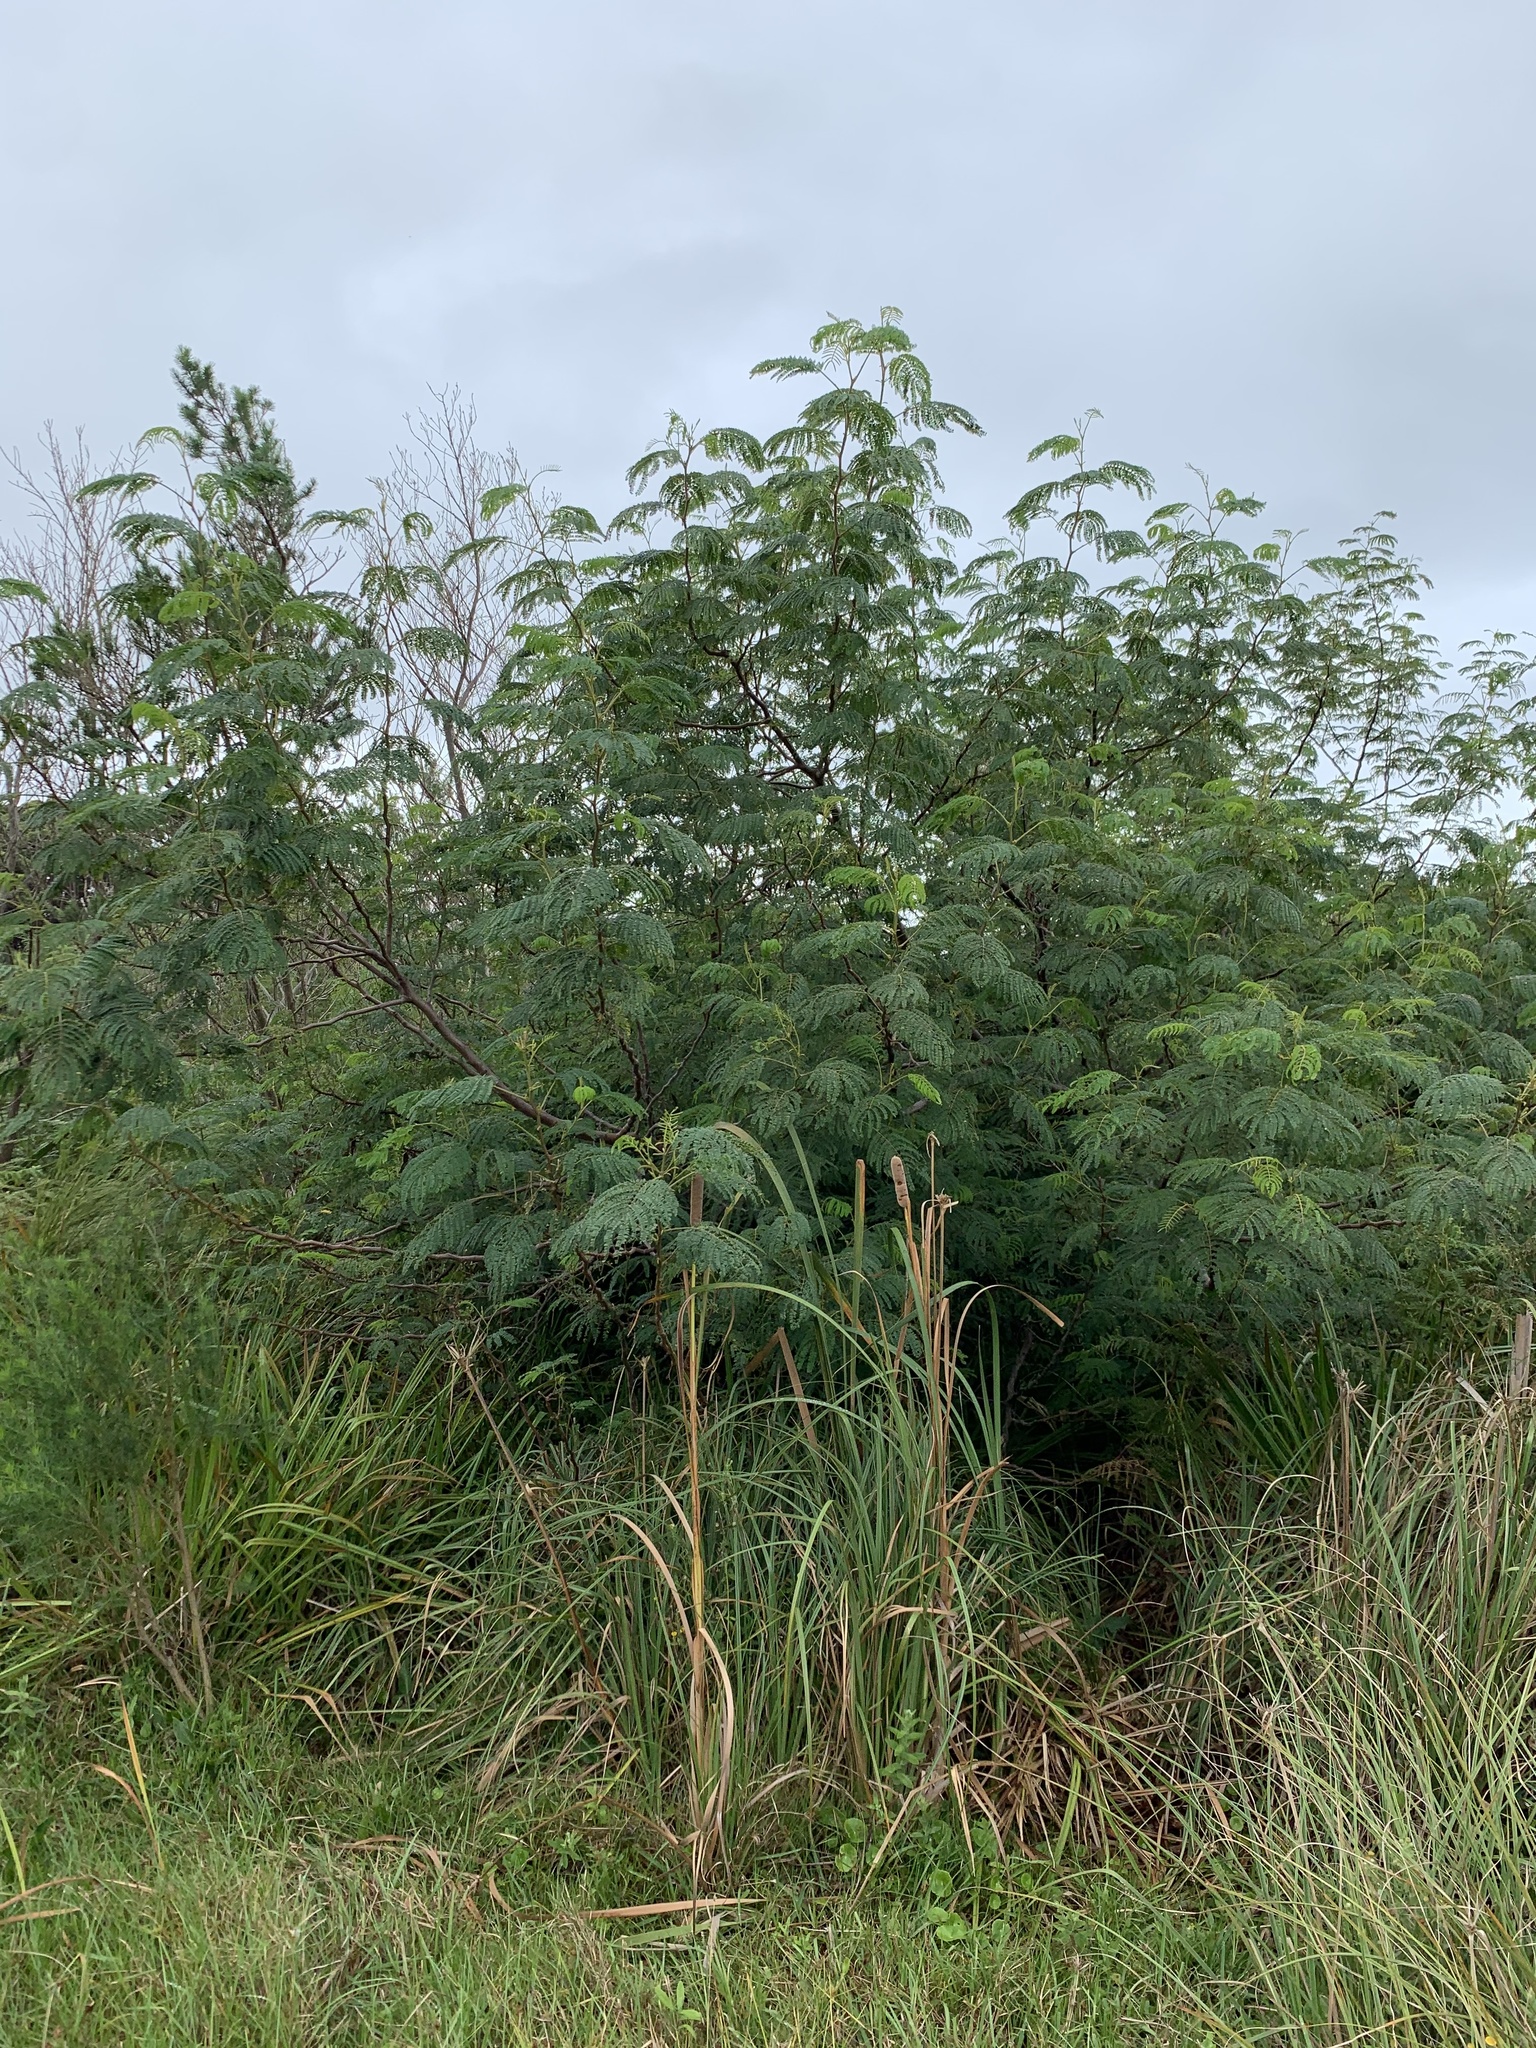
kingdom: Plantae
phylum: Tracheophyta
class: Magnoliopsida
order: Fabales
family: Fabaceae
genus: Paraserianthes
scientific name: Paraserianthes lophantha
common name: Plume albizia
